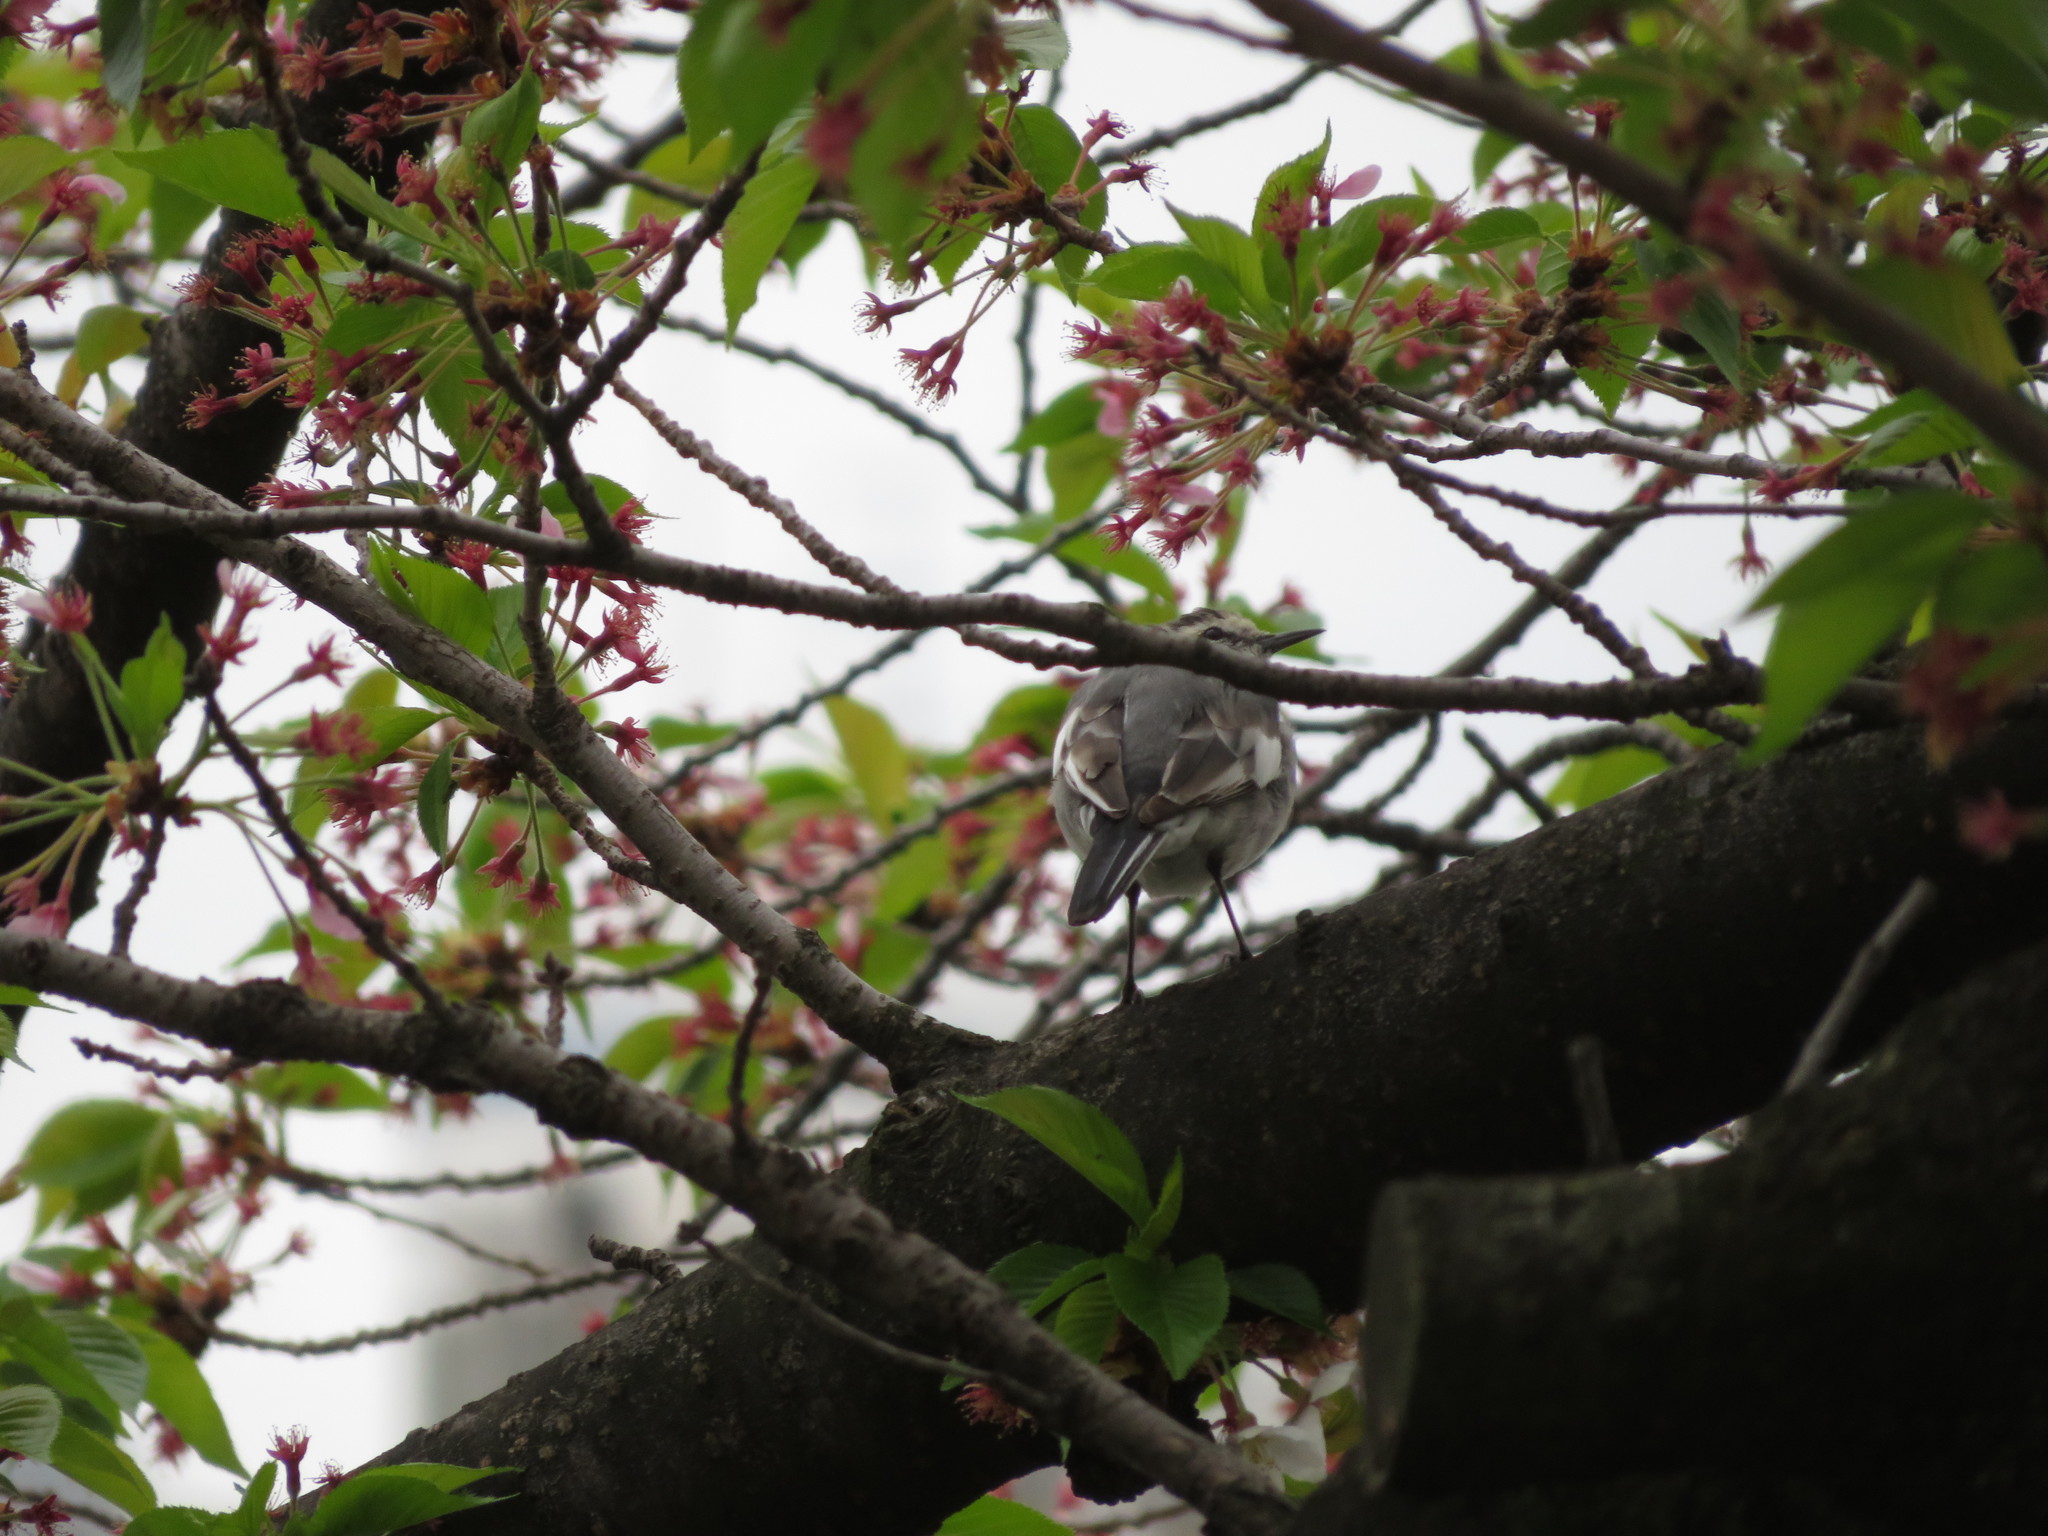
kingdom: Animalia
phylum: Chordata
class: Aves
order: Passeriformes
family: Motacillidae
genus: Motacilla
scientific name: Motacilla alba
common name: White wagtail
